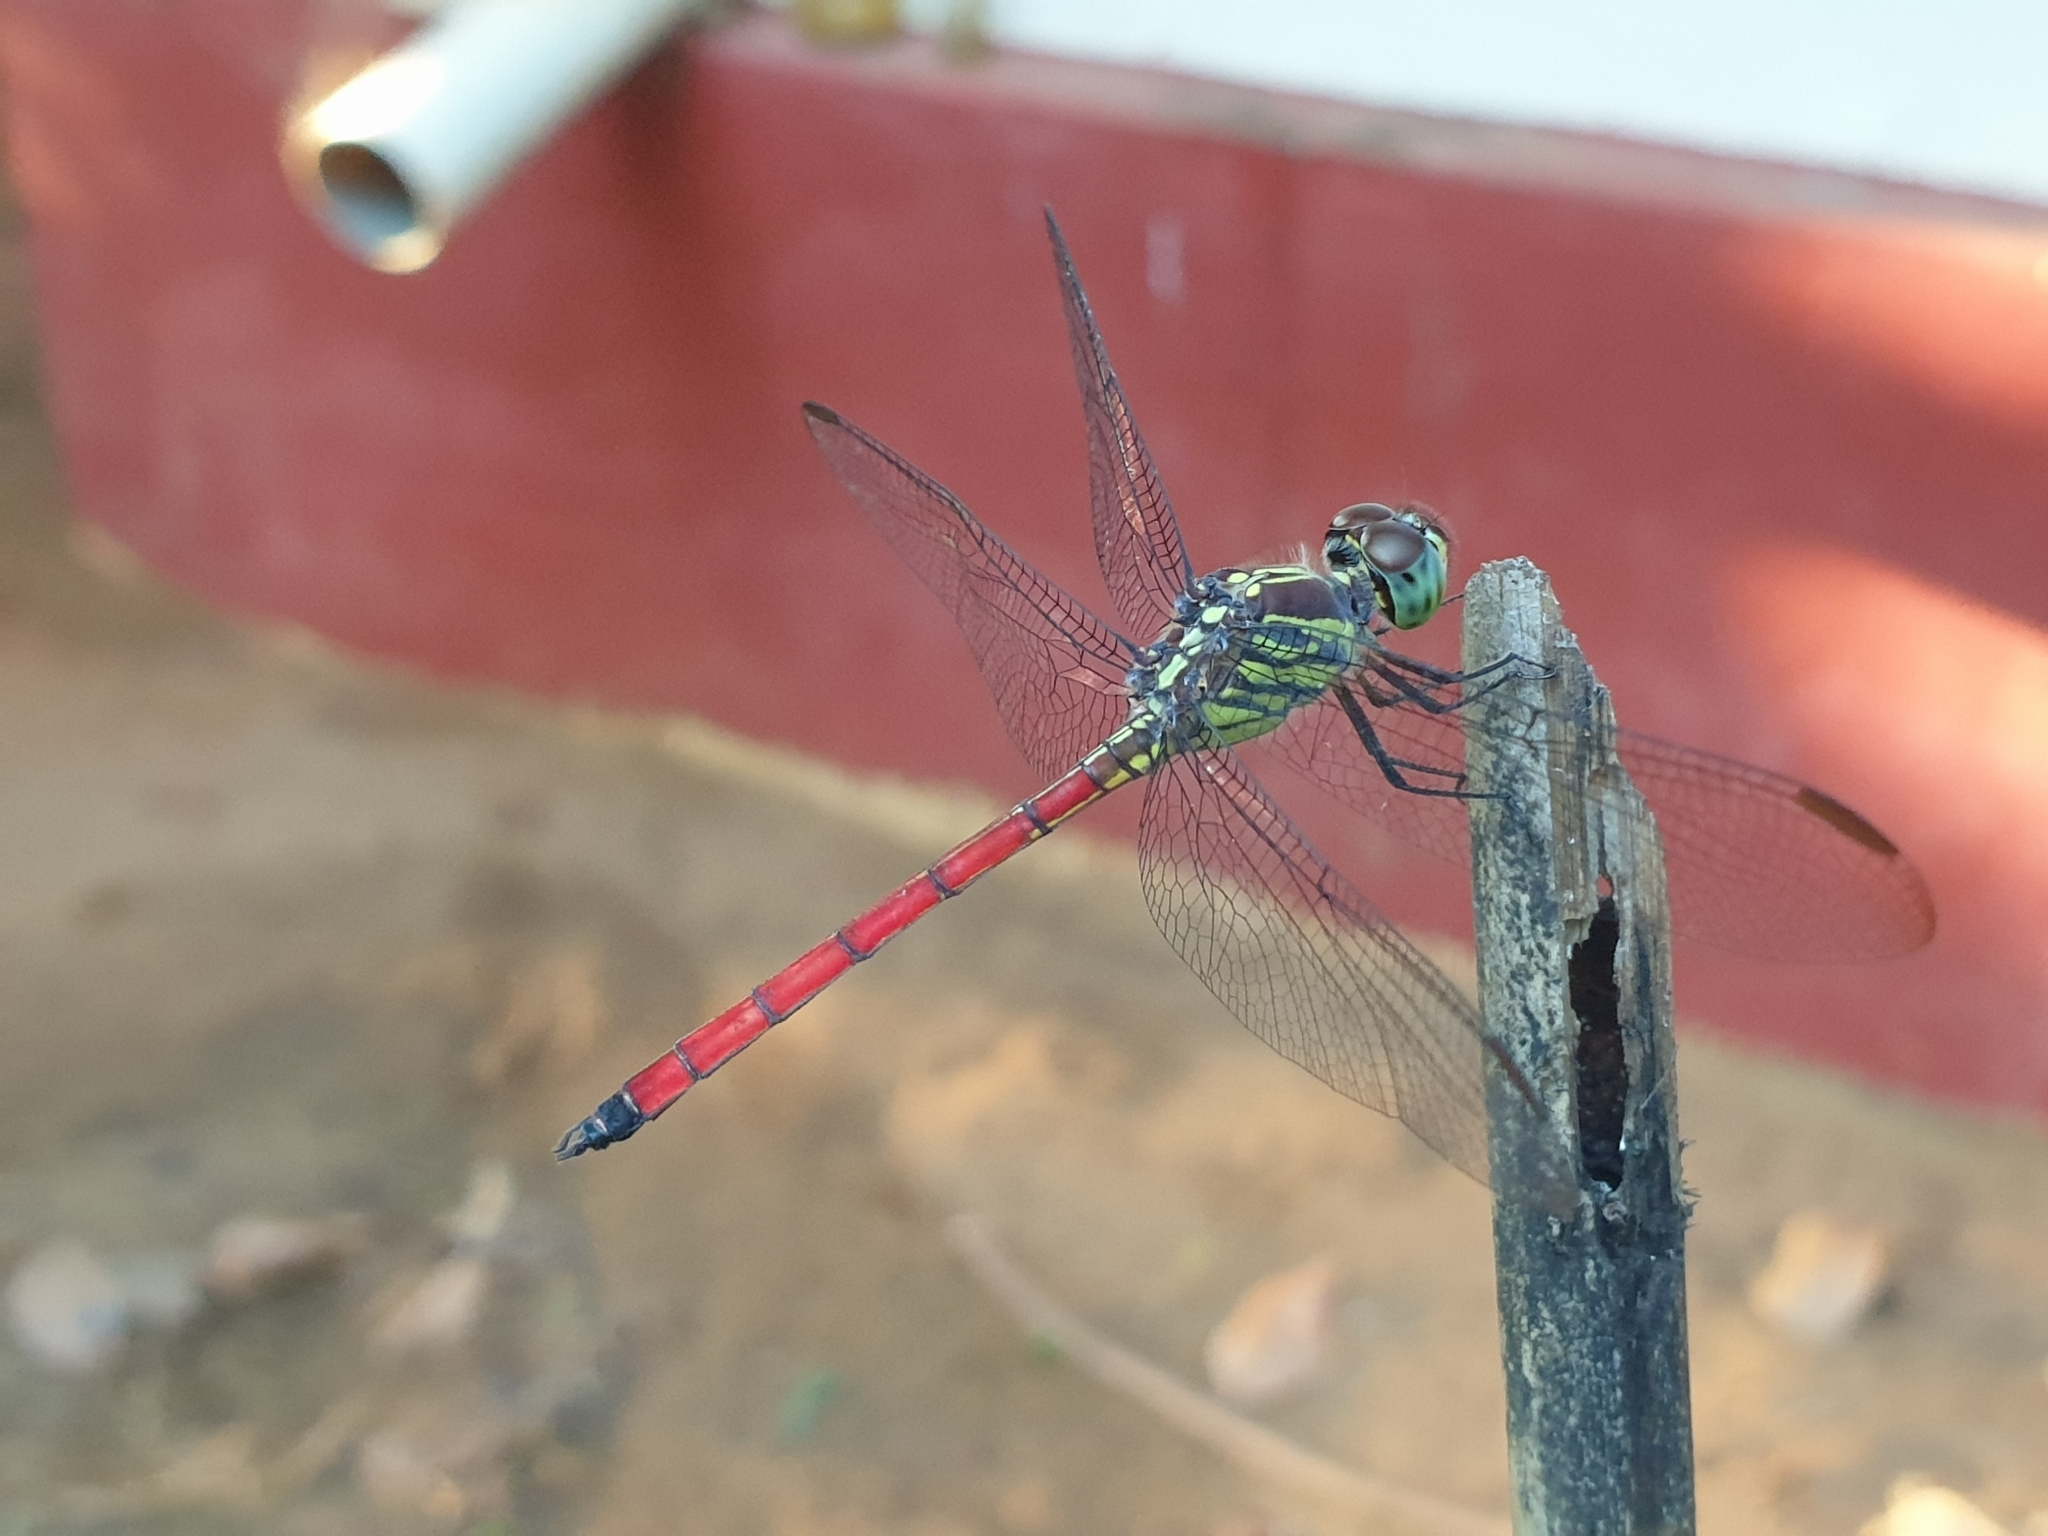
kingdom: Animalia
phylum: Arthropoda
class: Insecta
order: Odonata
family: Libellulidae
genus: Lathrecista
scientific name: Lathrecista asiatica
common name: Scarlet grenadier
